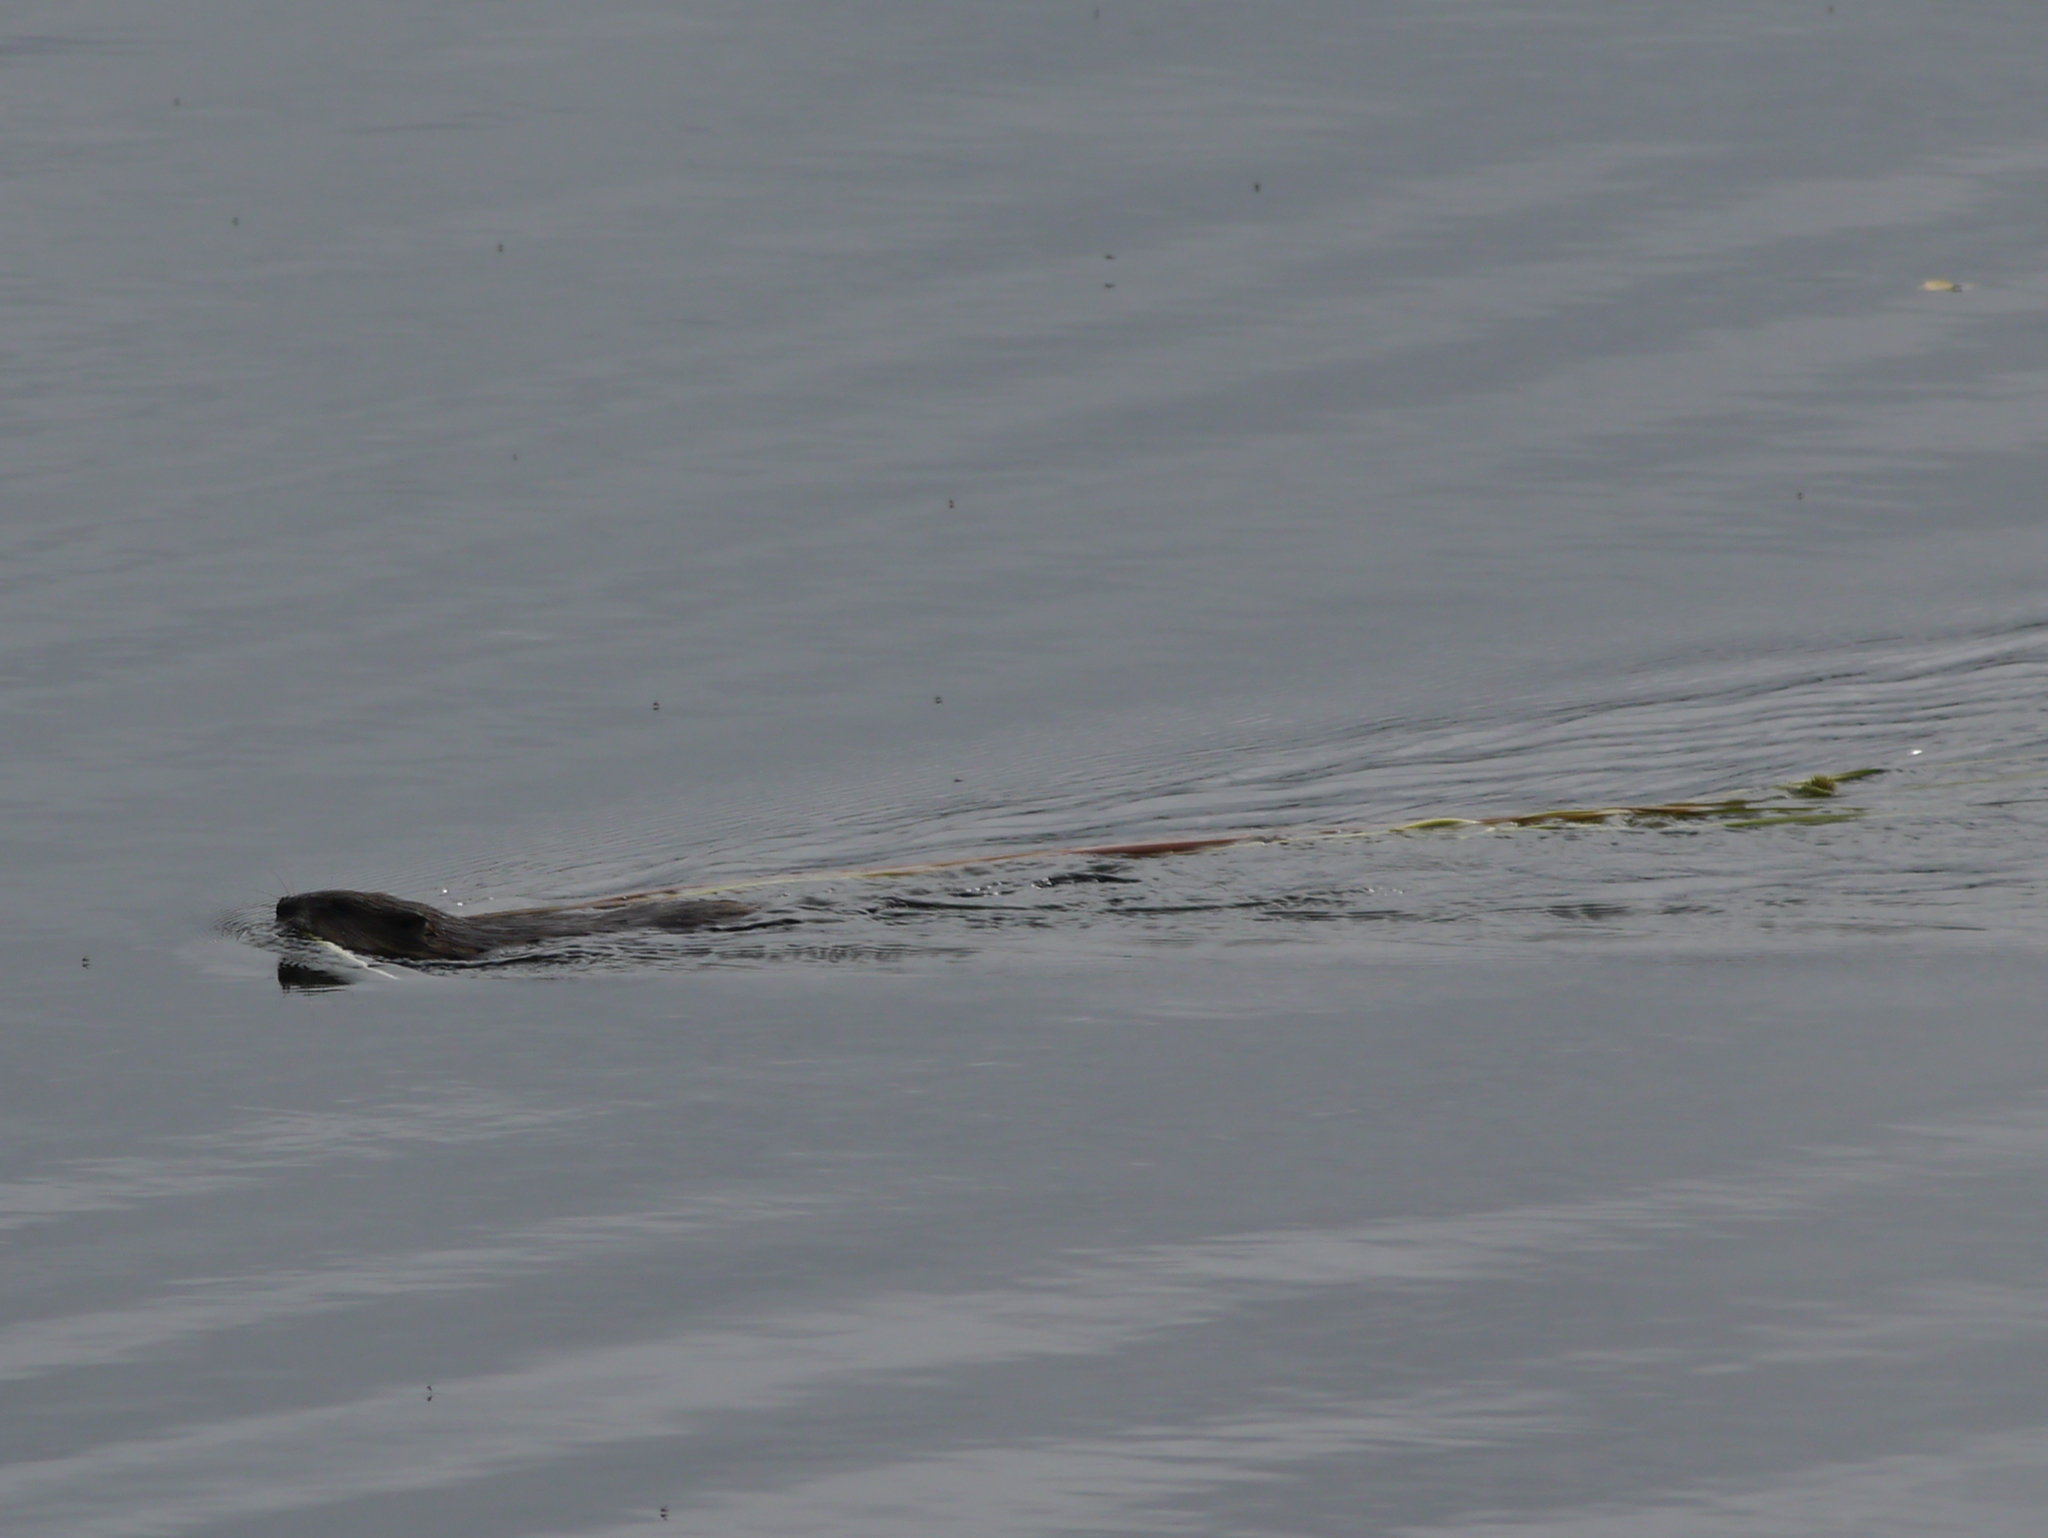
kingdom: Animalia
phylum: Chordata
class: Mammalia
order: Rodentia
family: Cricetidae
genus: Ondatra
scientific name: Ondatra zibethicus
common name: Muskrat
